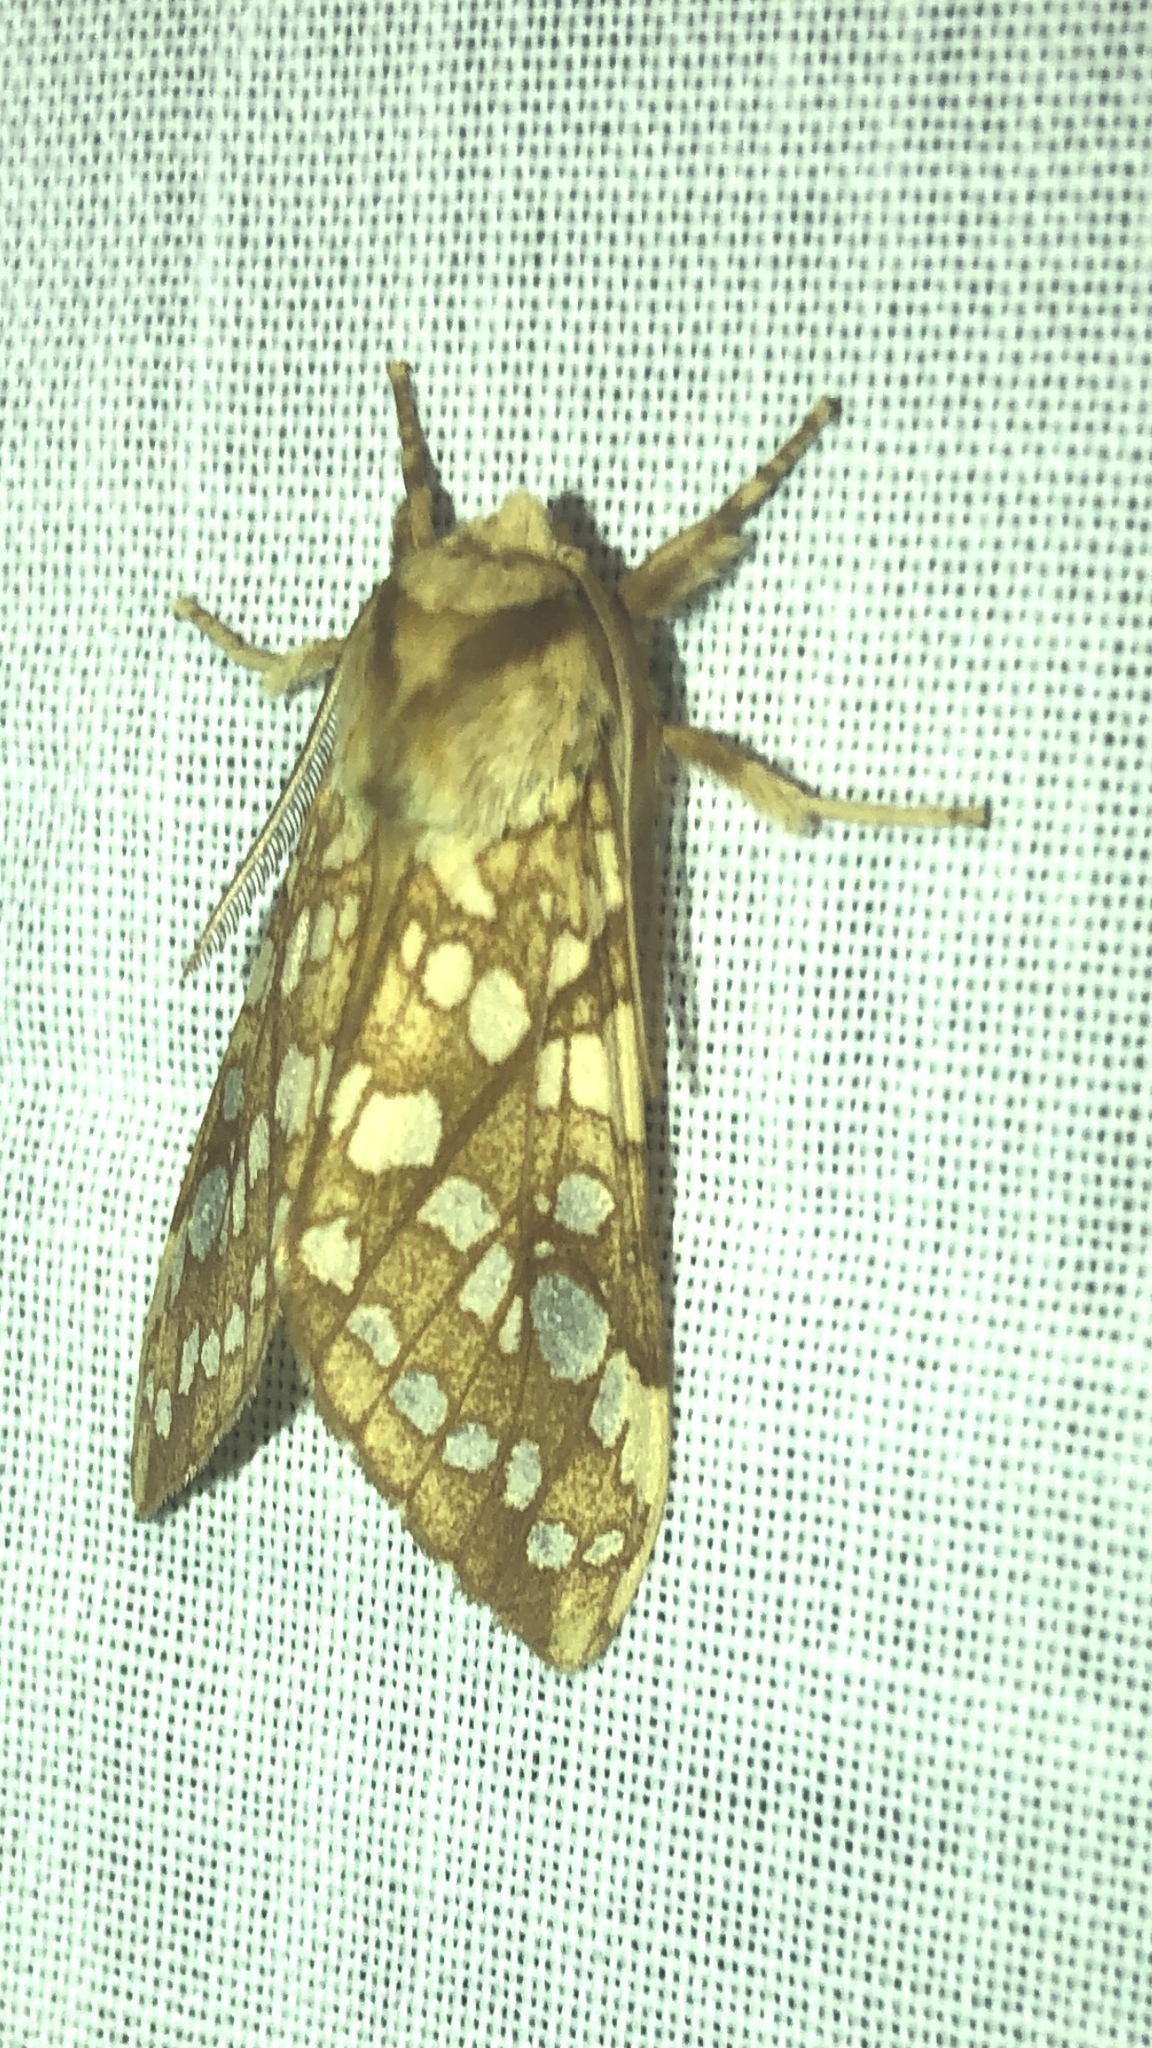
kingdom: Animalia
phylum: Arthropoda
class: Insecta
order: Lepidoptera
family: Erebidae
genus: Lophocampa
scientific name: Lophocampa caryae
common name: Hickory tussock moth
